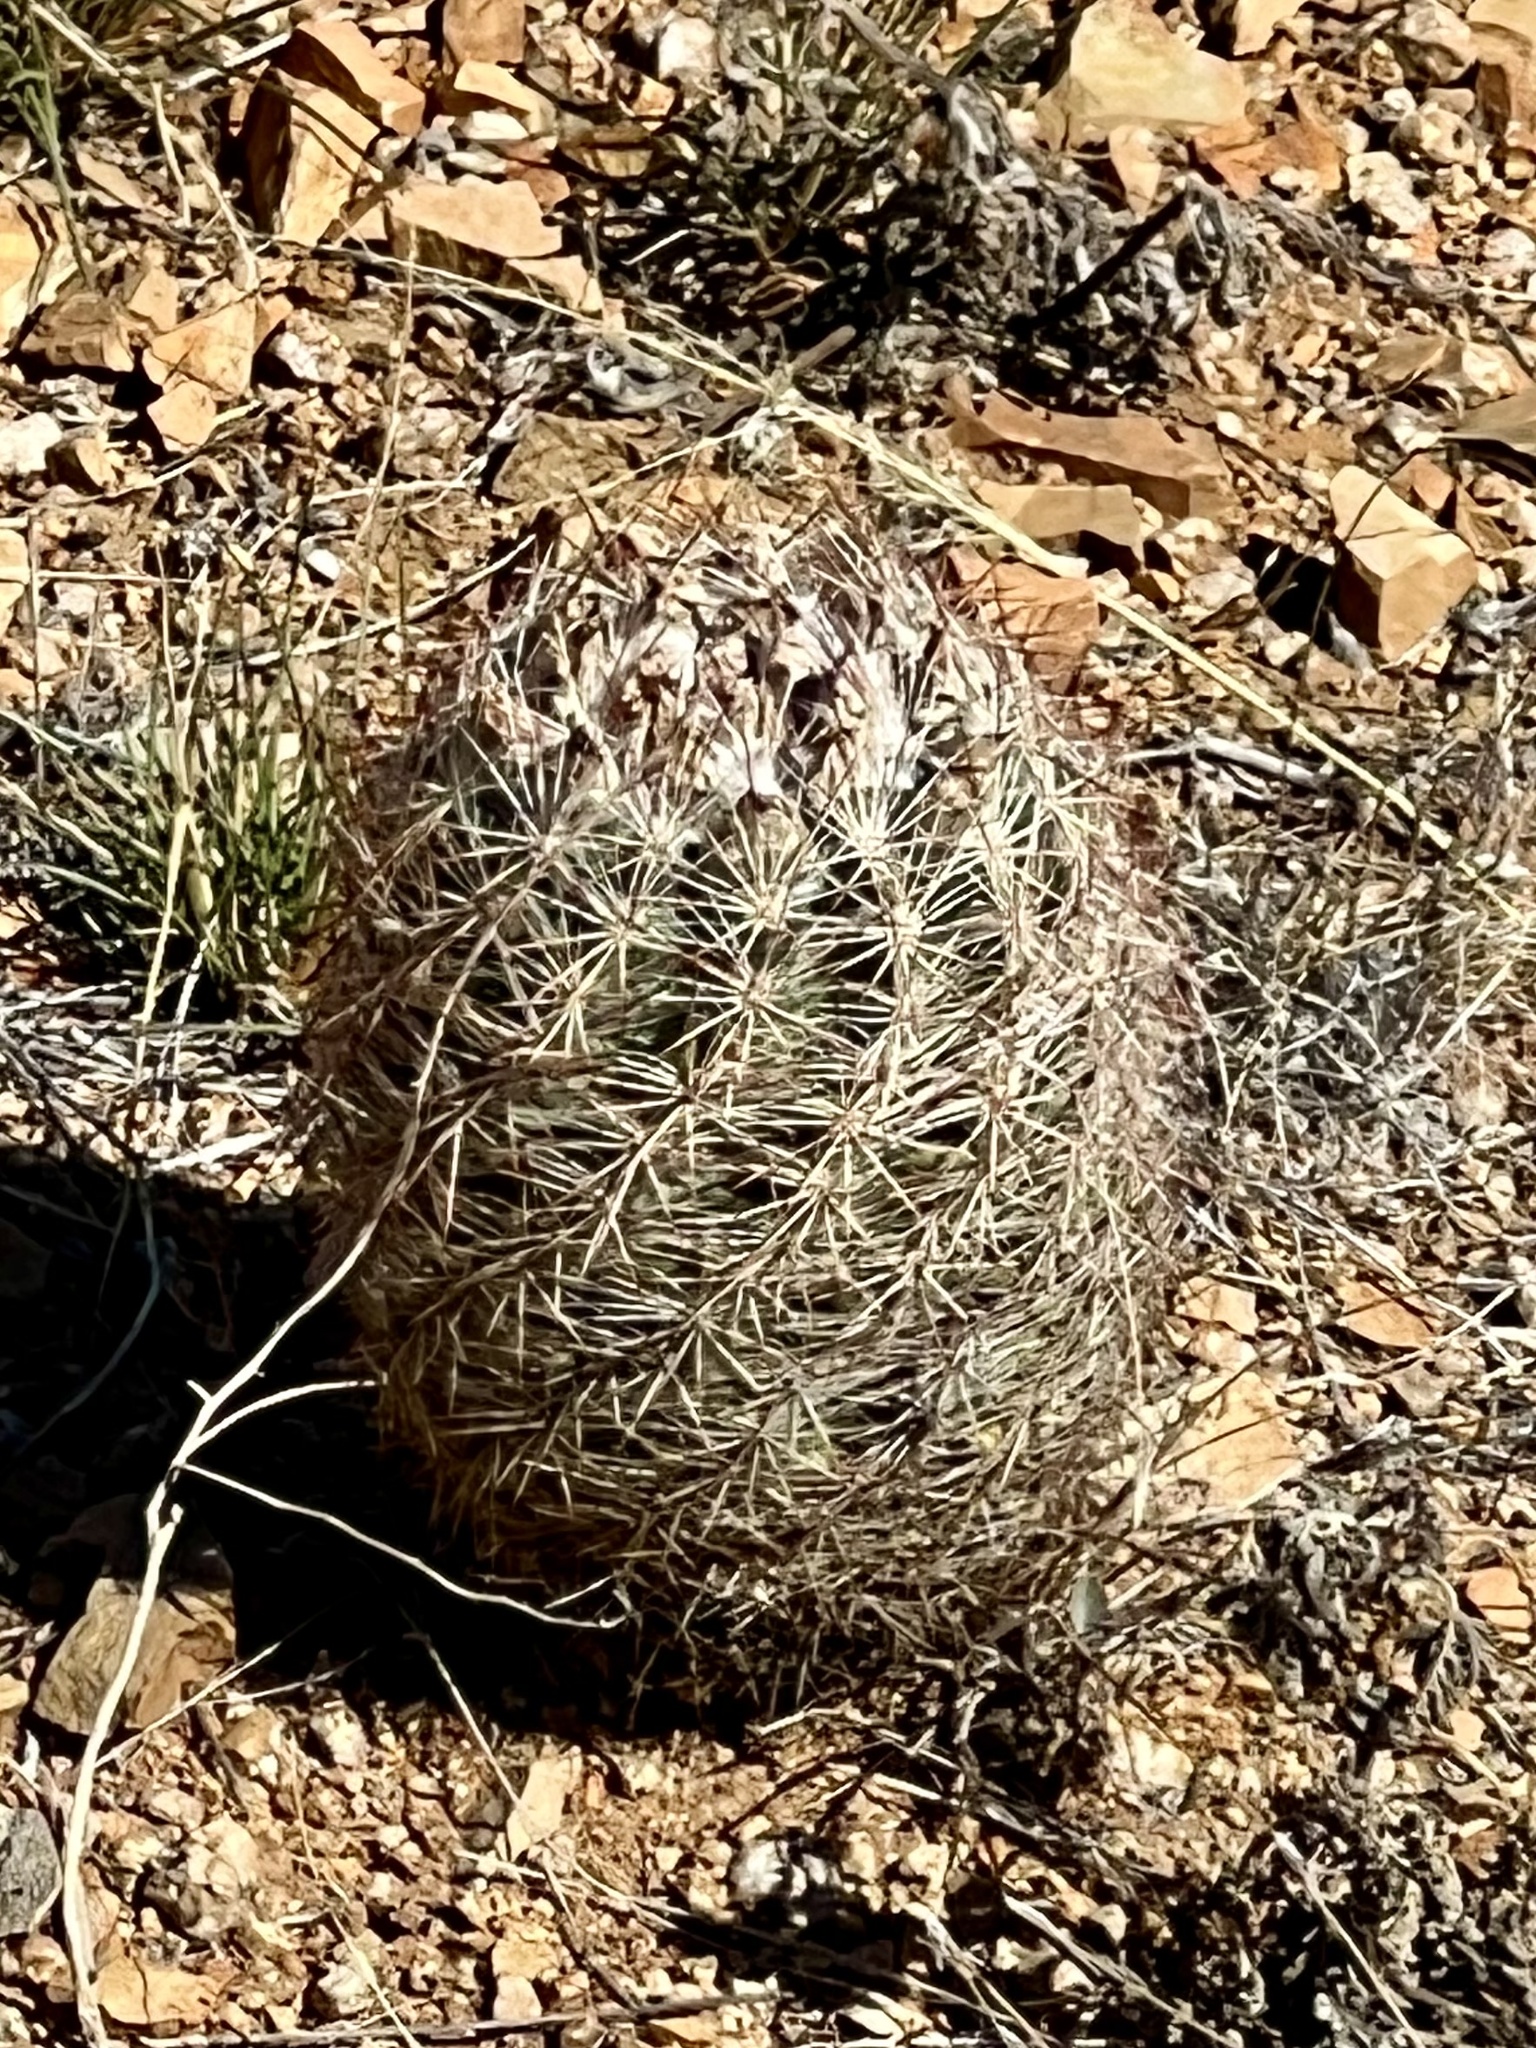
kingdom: Plantae
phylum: Tracheophyta
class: Magnoliopsida
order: Caryophyllales
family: Cactaceae
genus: Sclerocactus
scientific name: Sclerocactus intertextus
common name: White fish-hook cactus
